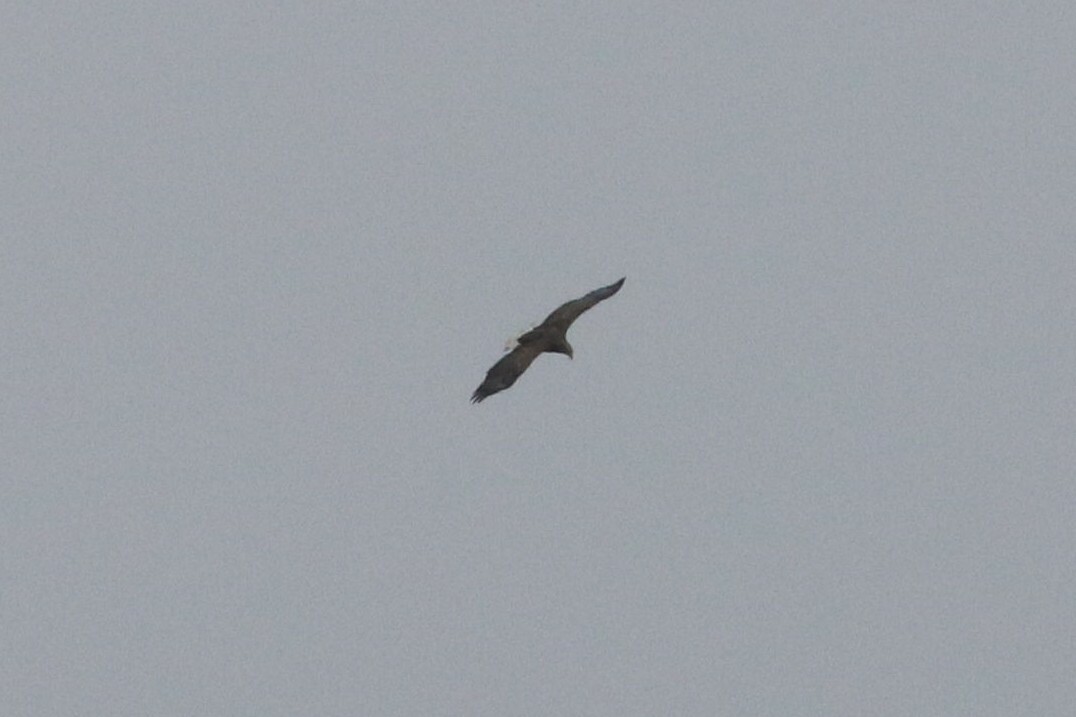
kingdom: Animalia
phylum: Chordata
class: Aves
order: Accipitriformes
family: Accipitridae
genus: Haliaeetus
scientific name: Haliaeetus albicilla
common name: White-tailed eagle
